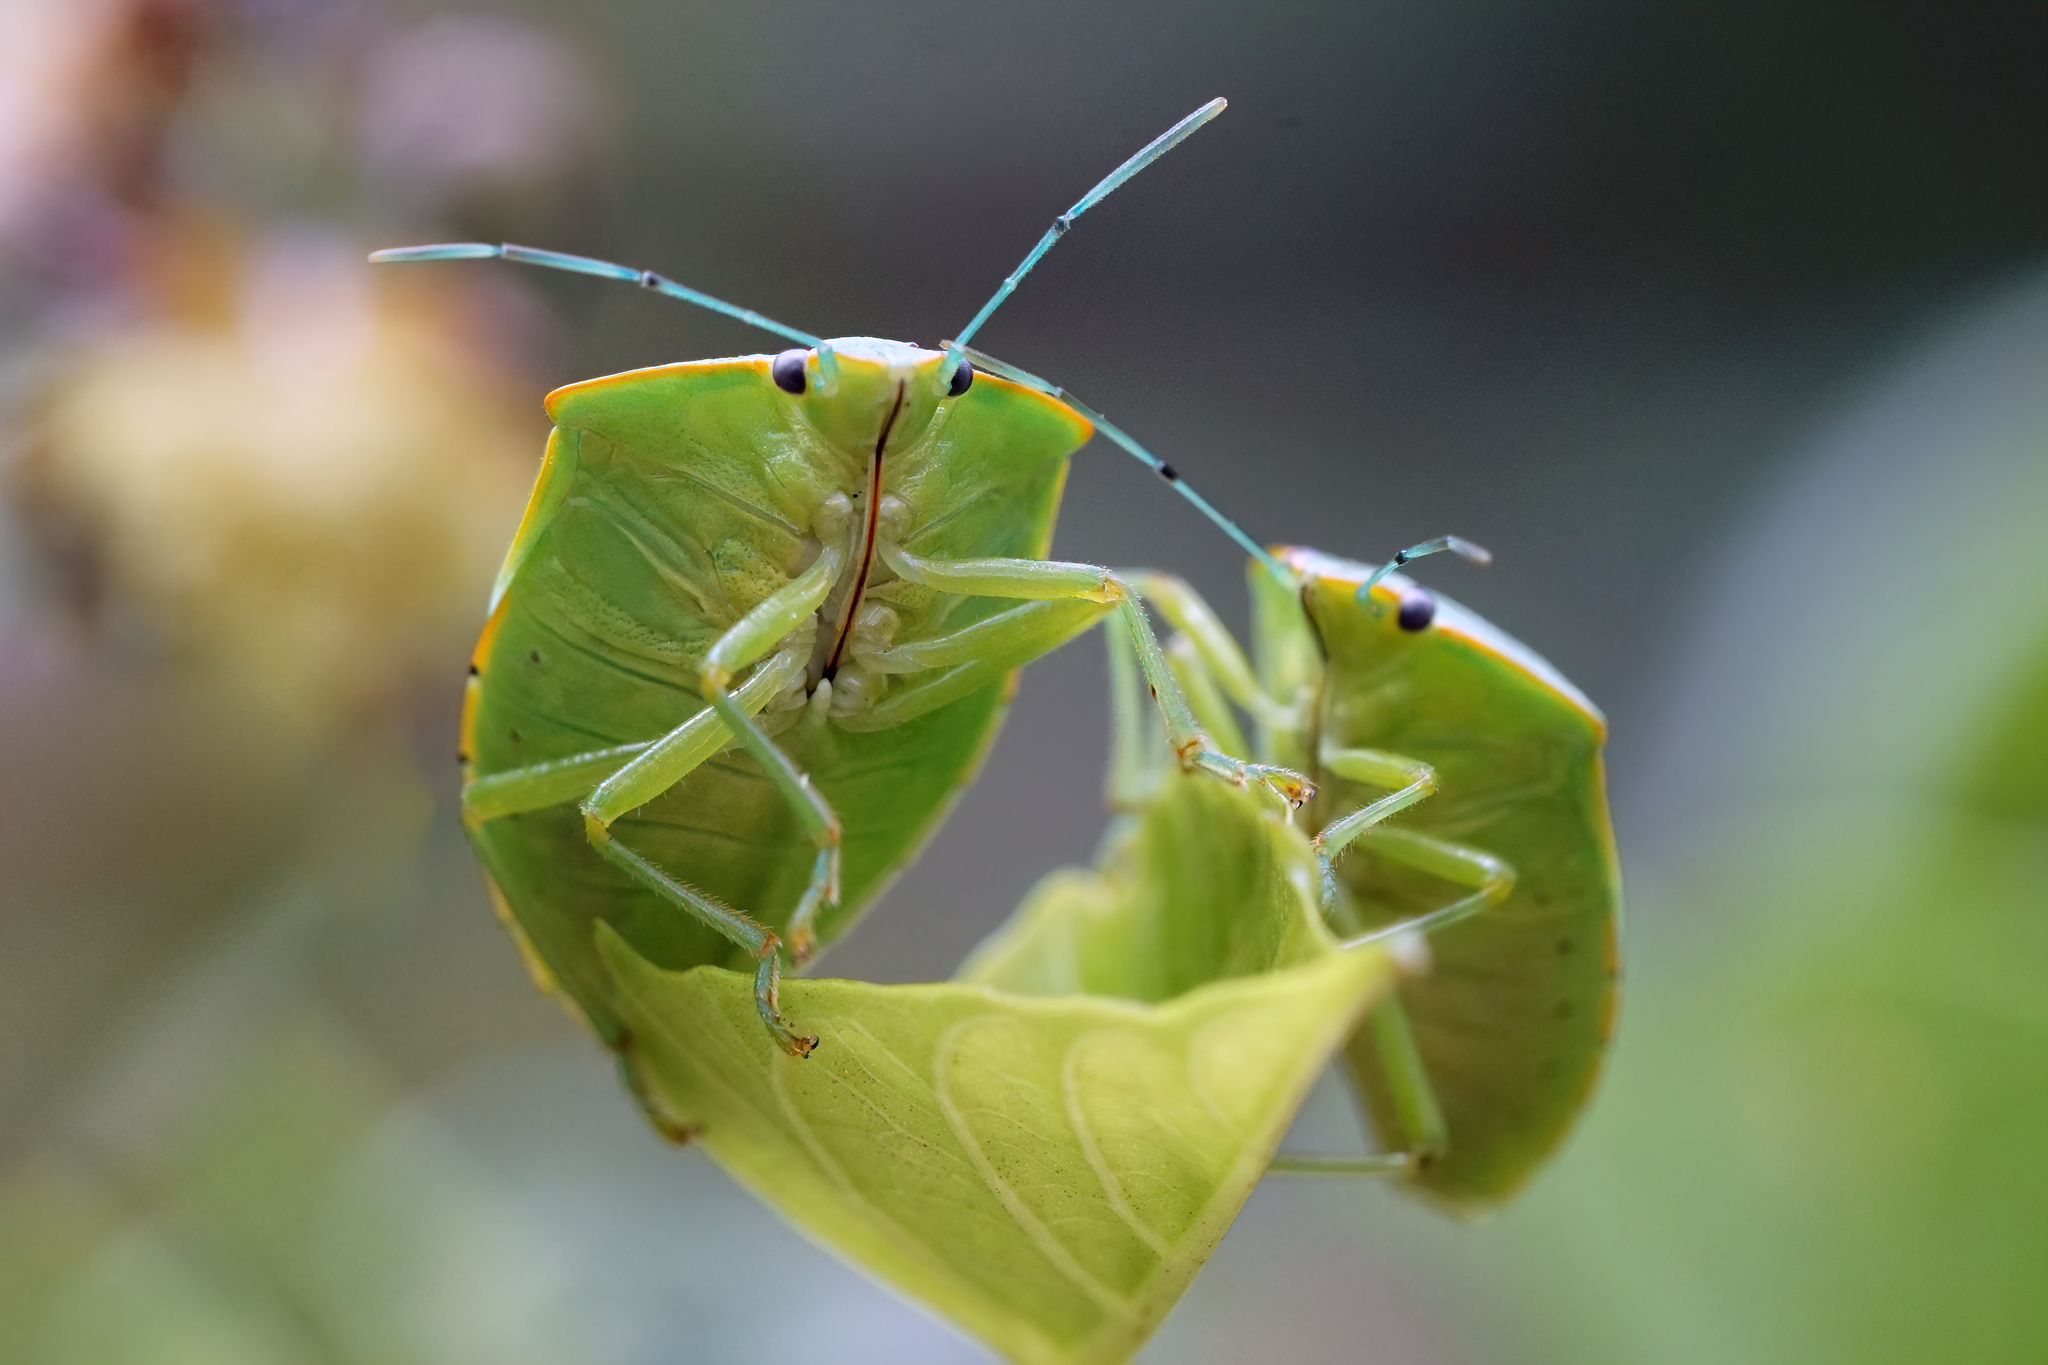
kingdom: Animalia
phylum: Arthropoda
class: Insecta
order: Hemiptera
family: Pentatomidae
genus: Acrosternum
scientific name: Acrosternum marginatum
